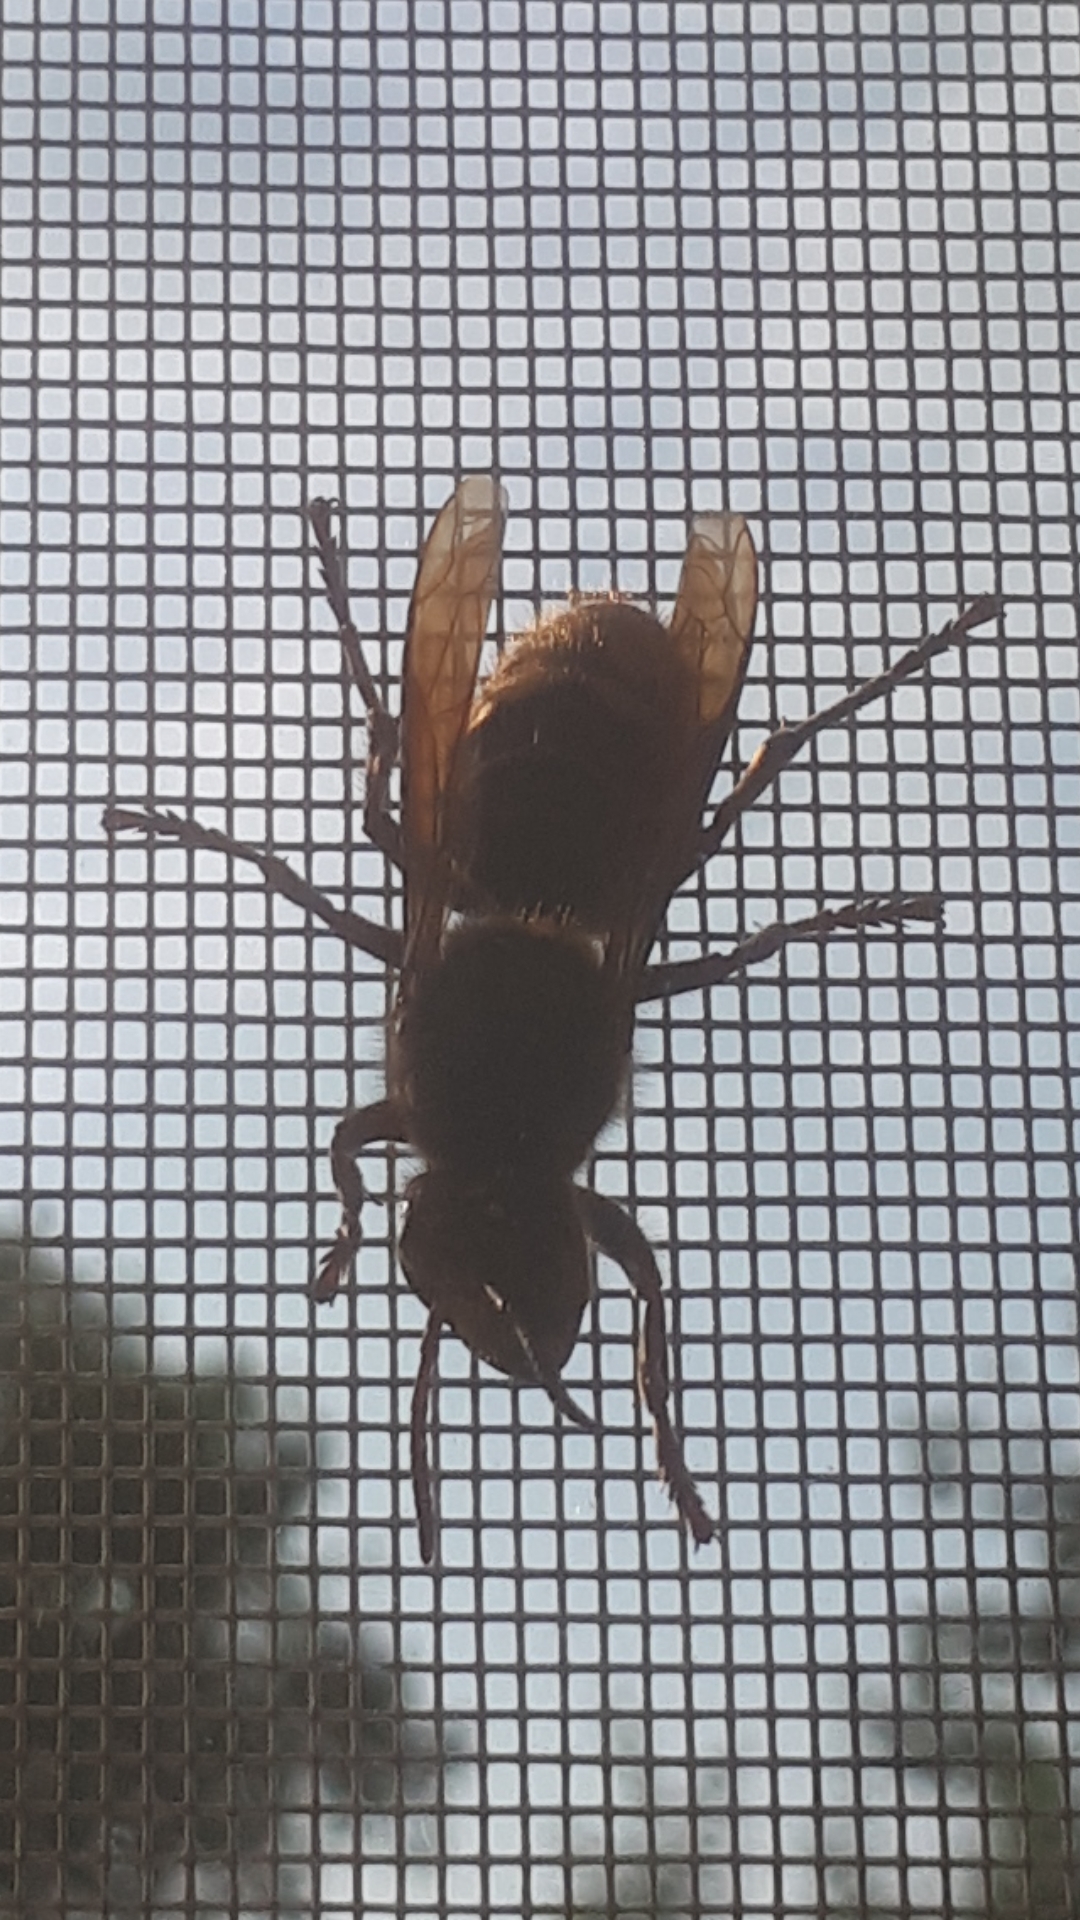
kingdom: Animalia
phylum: Arthropoda
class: Insecta
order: Hymenoptera
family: Vespidae
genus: Vespa
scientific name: Vespa crabro
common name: Hornet
